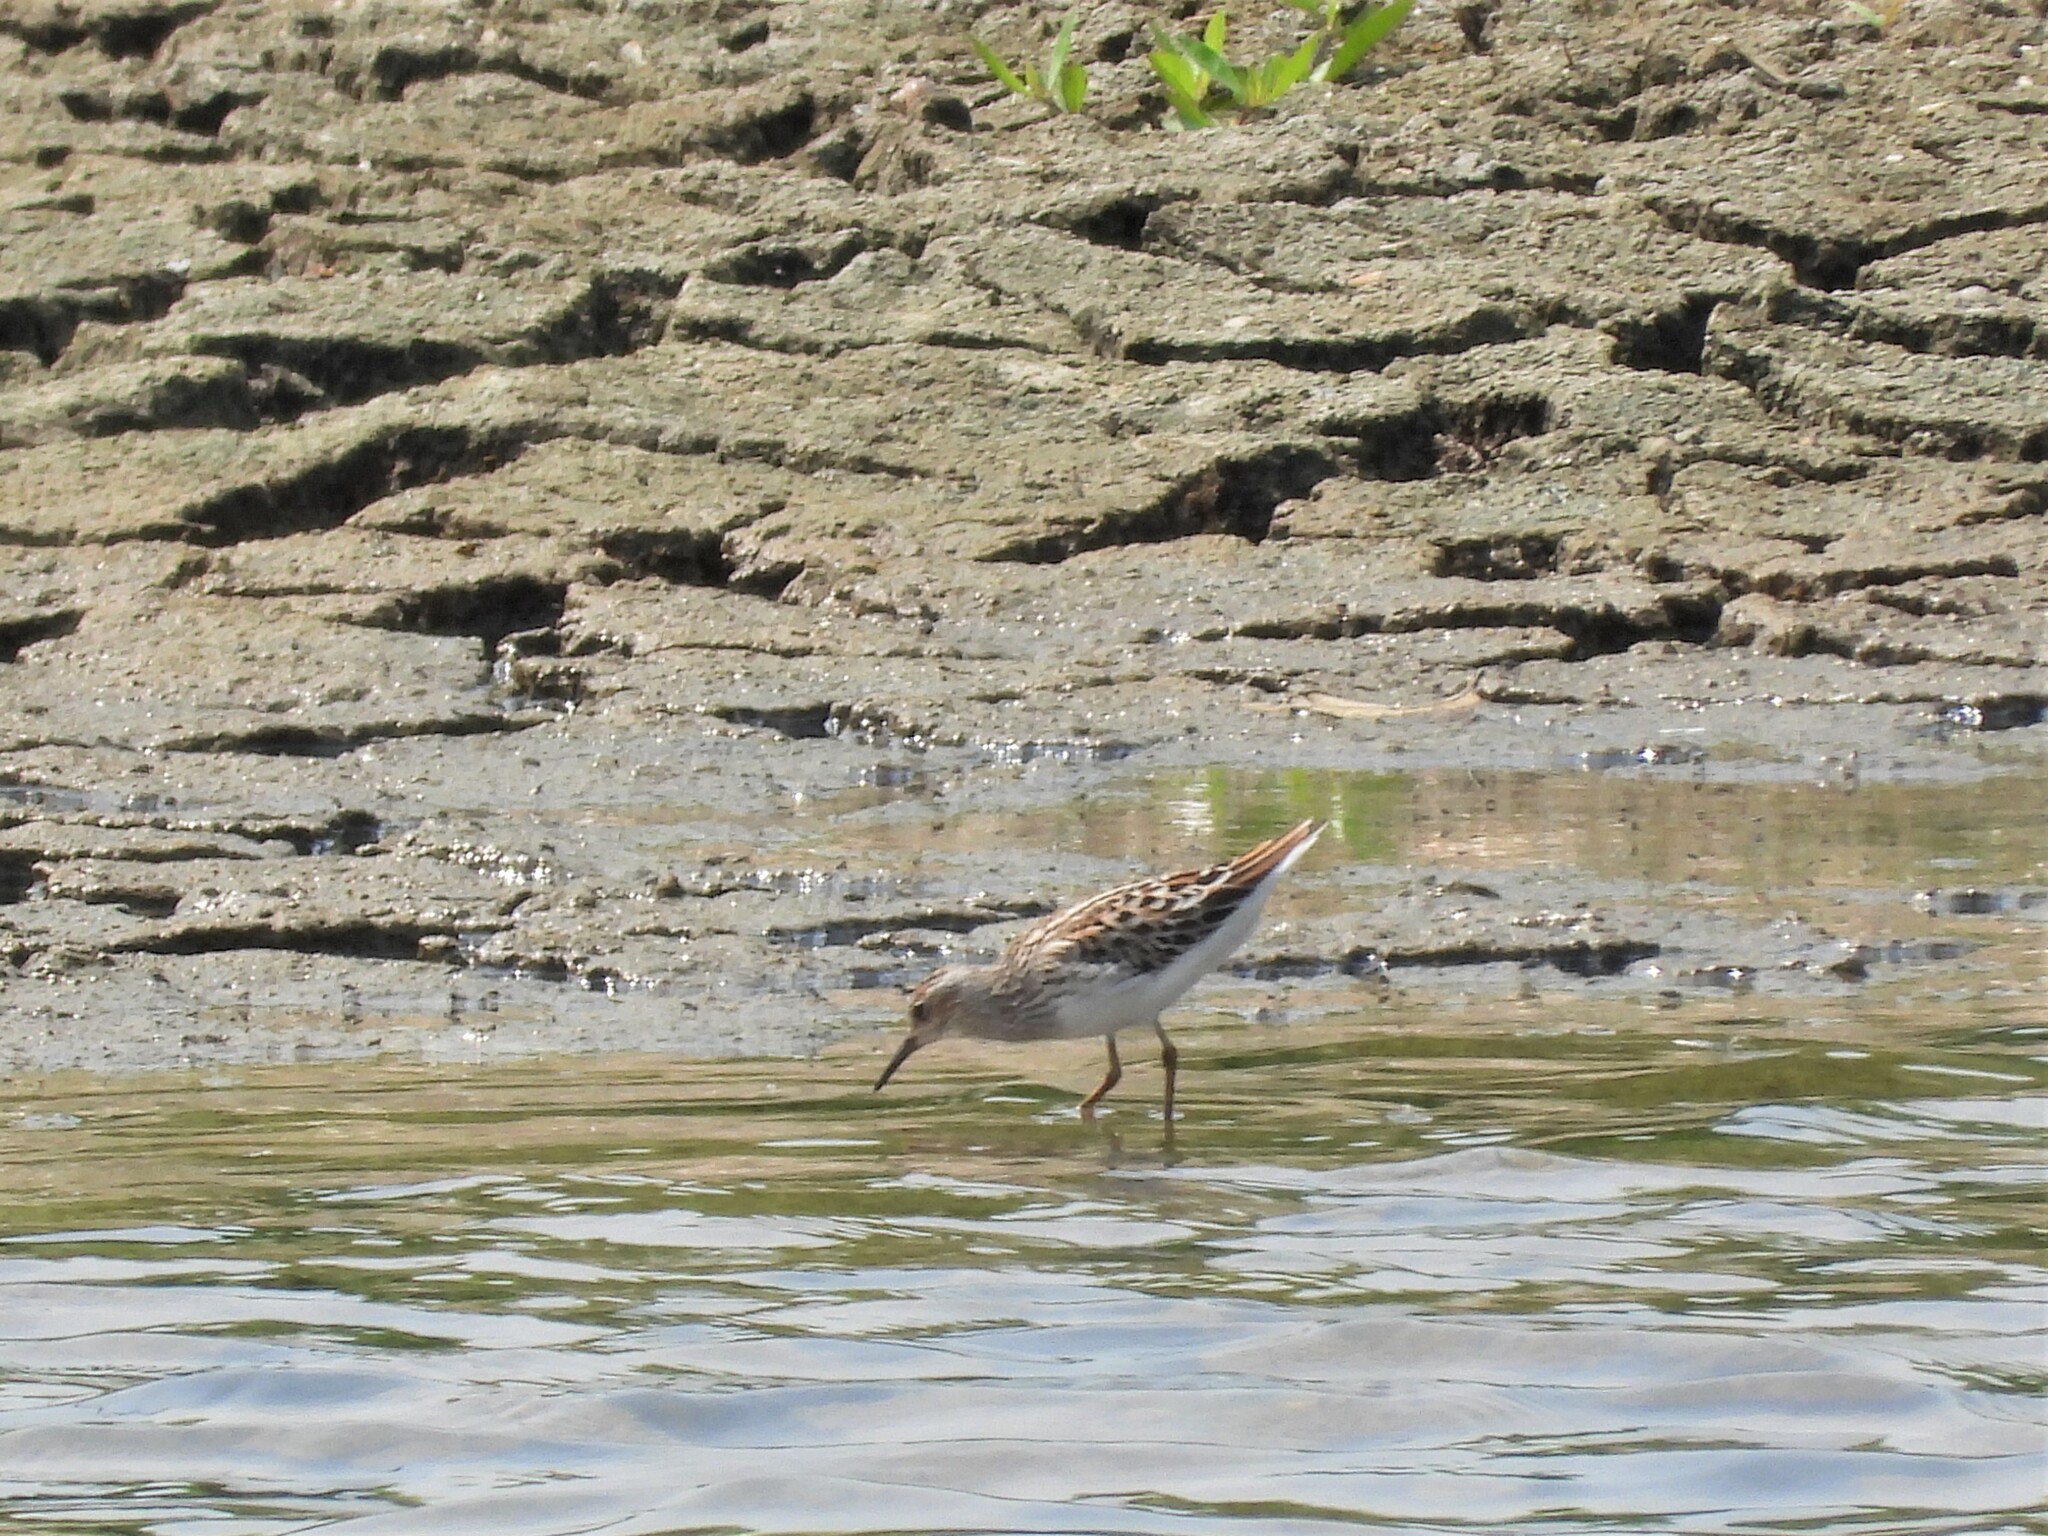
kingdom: Animalia
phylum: Chordata
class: Aves
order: Charadriiformes
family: Scolopacidae
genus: Calidris
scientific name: Calidris acuminata
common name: Sharp-tailed sandpiper
